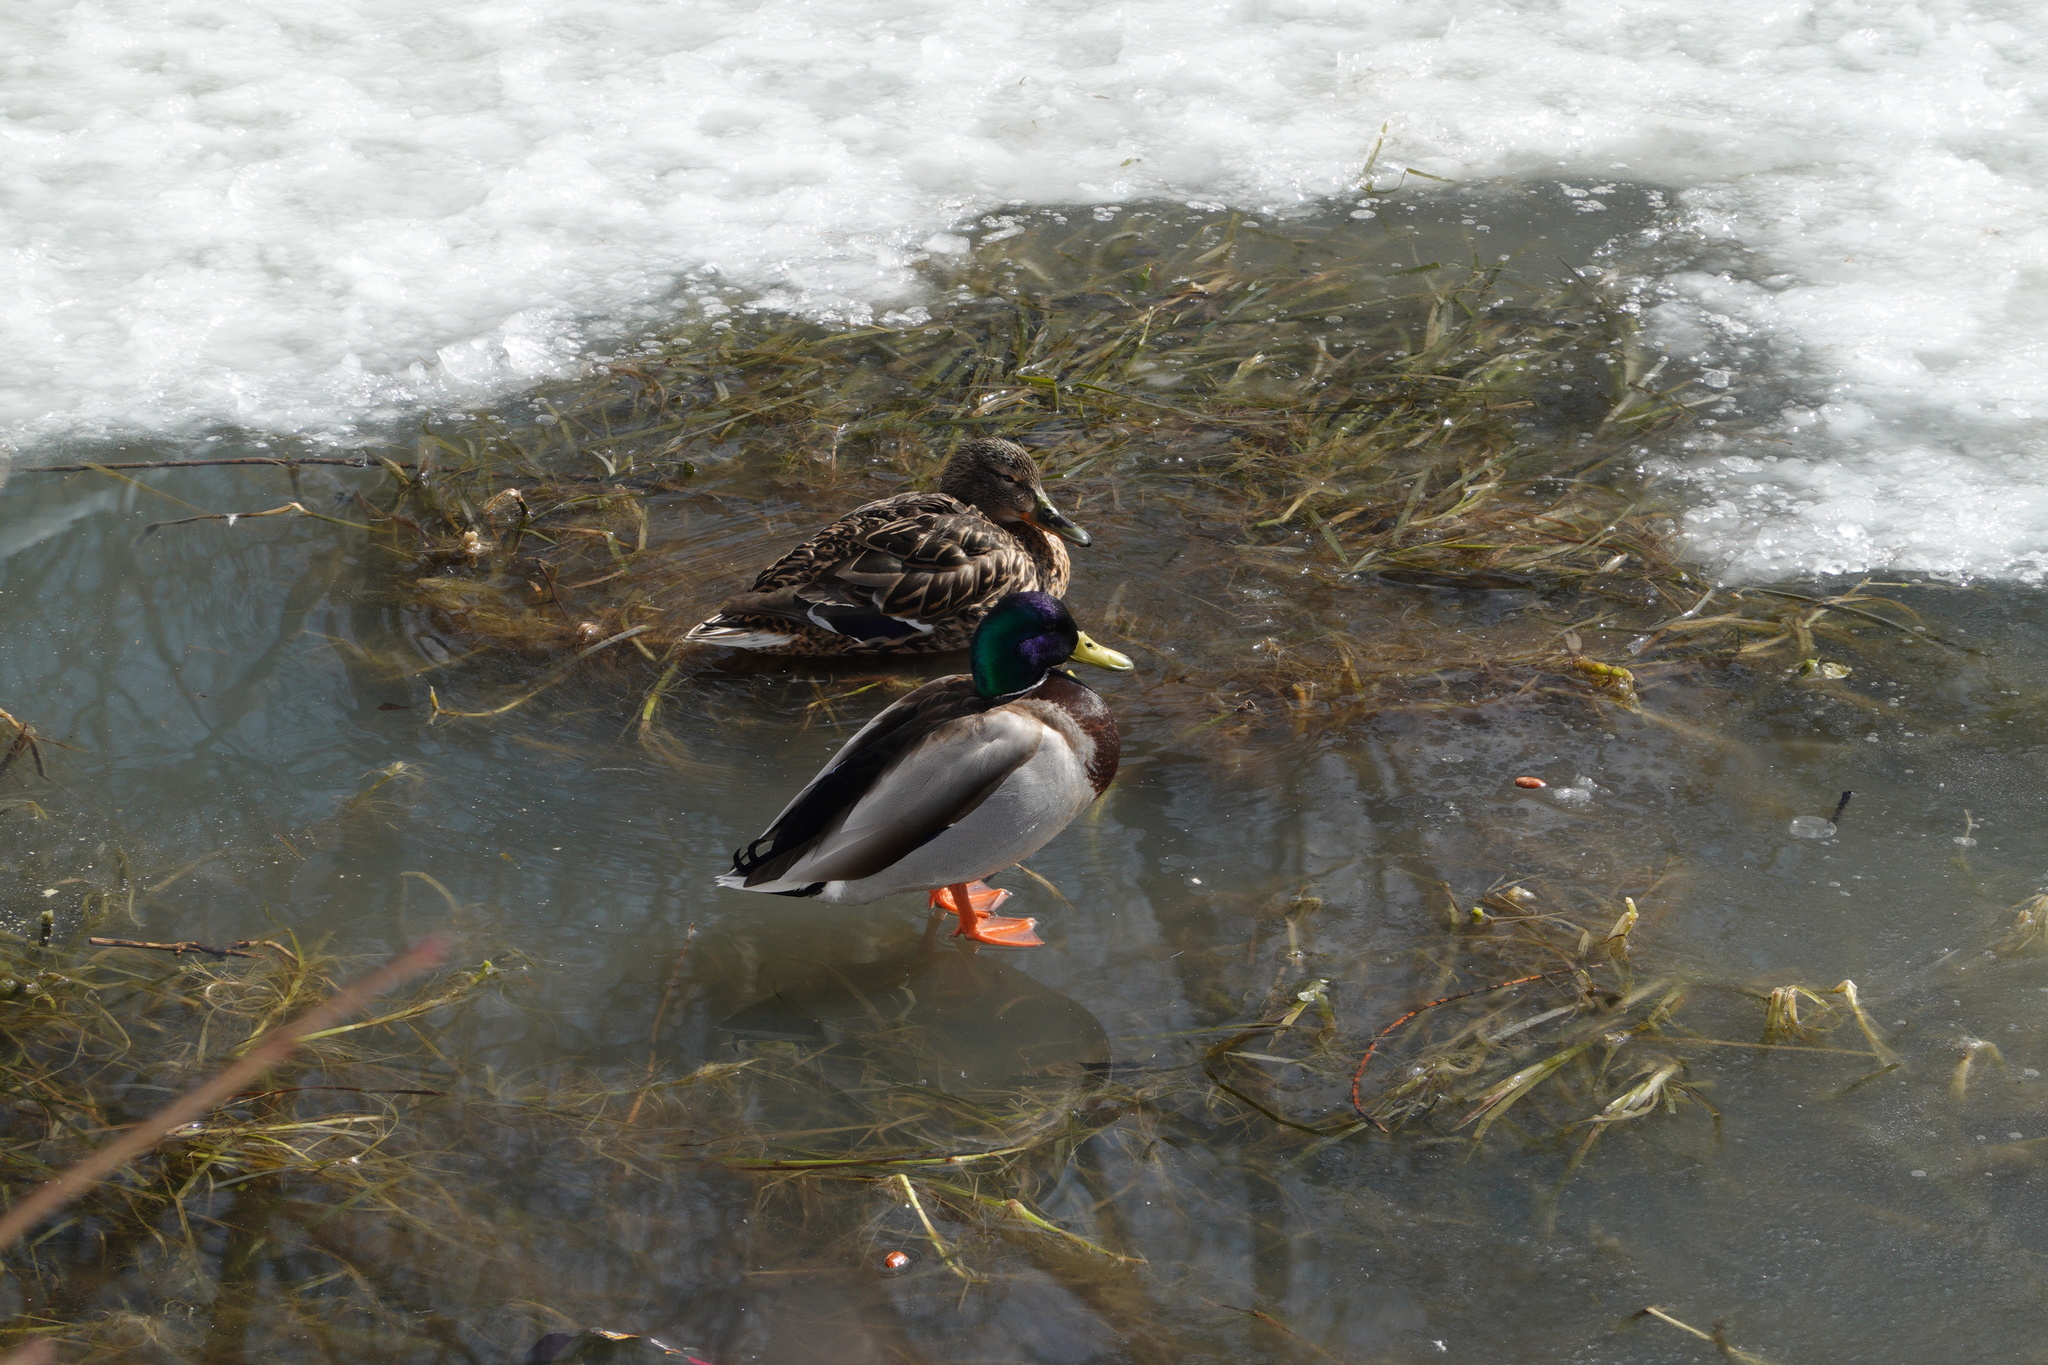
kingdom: Animalia
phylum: Chordata
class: Aves
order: Anseriformes
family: Anatidae
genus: Anas
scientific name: Anas platyrhynchos
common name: Mallard
